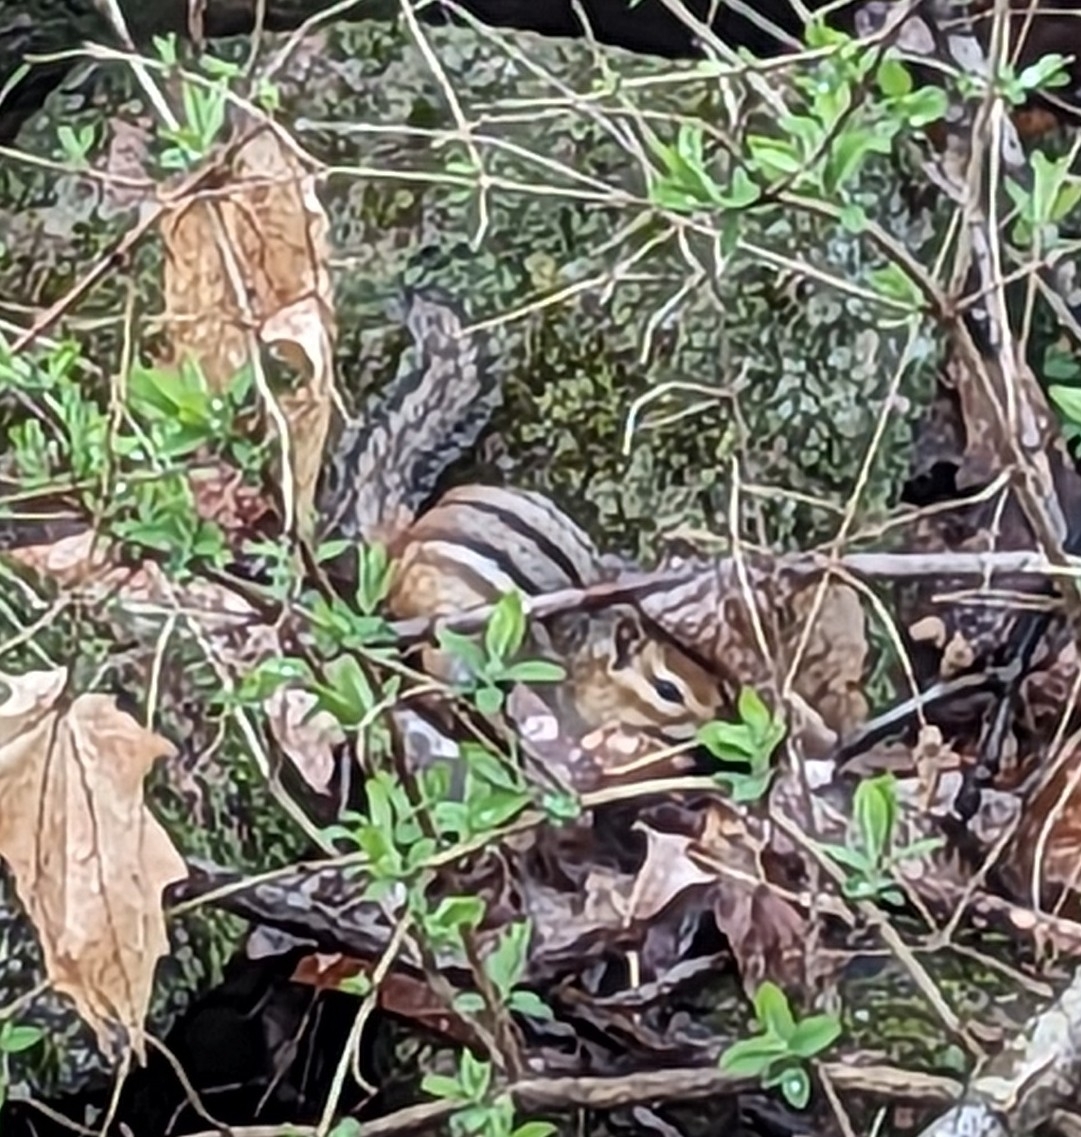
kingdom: Animalia
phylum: Chordata
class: Mammalia
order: Rodentia
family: Sciuridae
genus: Tamias
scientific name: Tamias striatus
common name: Eastern chipmunk
